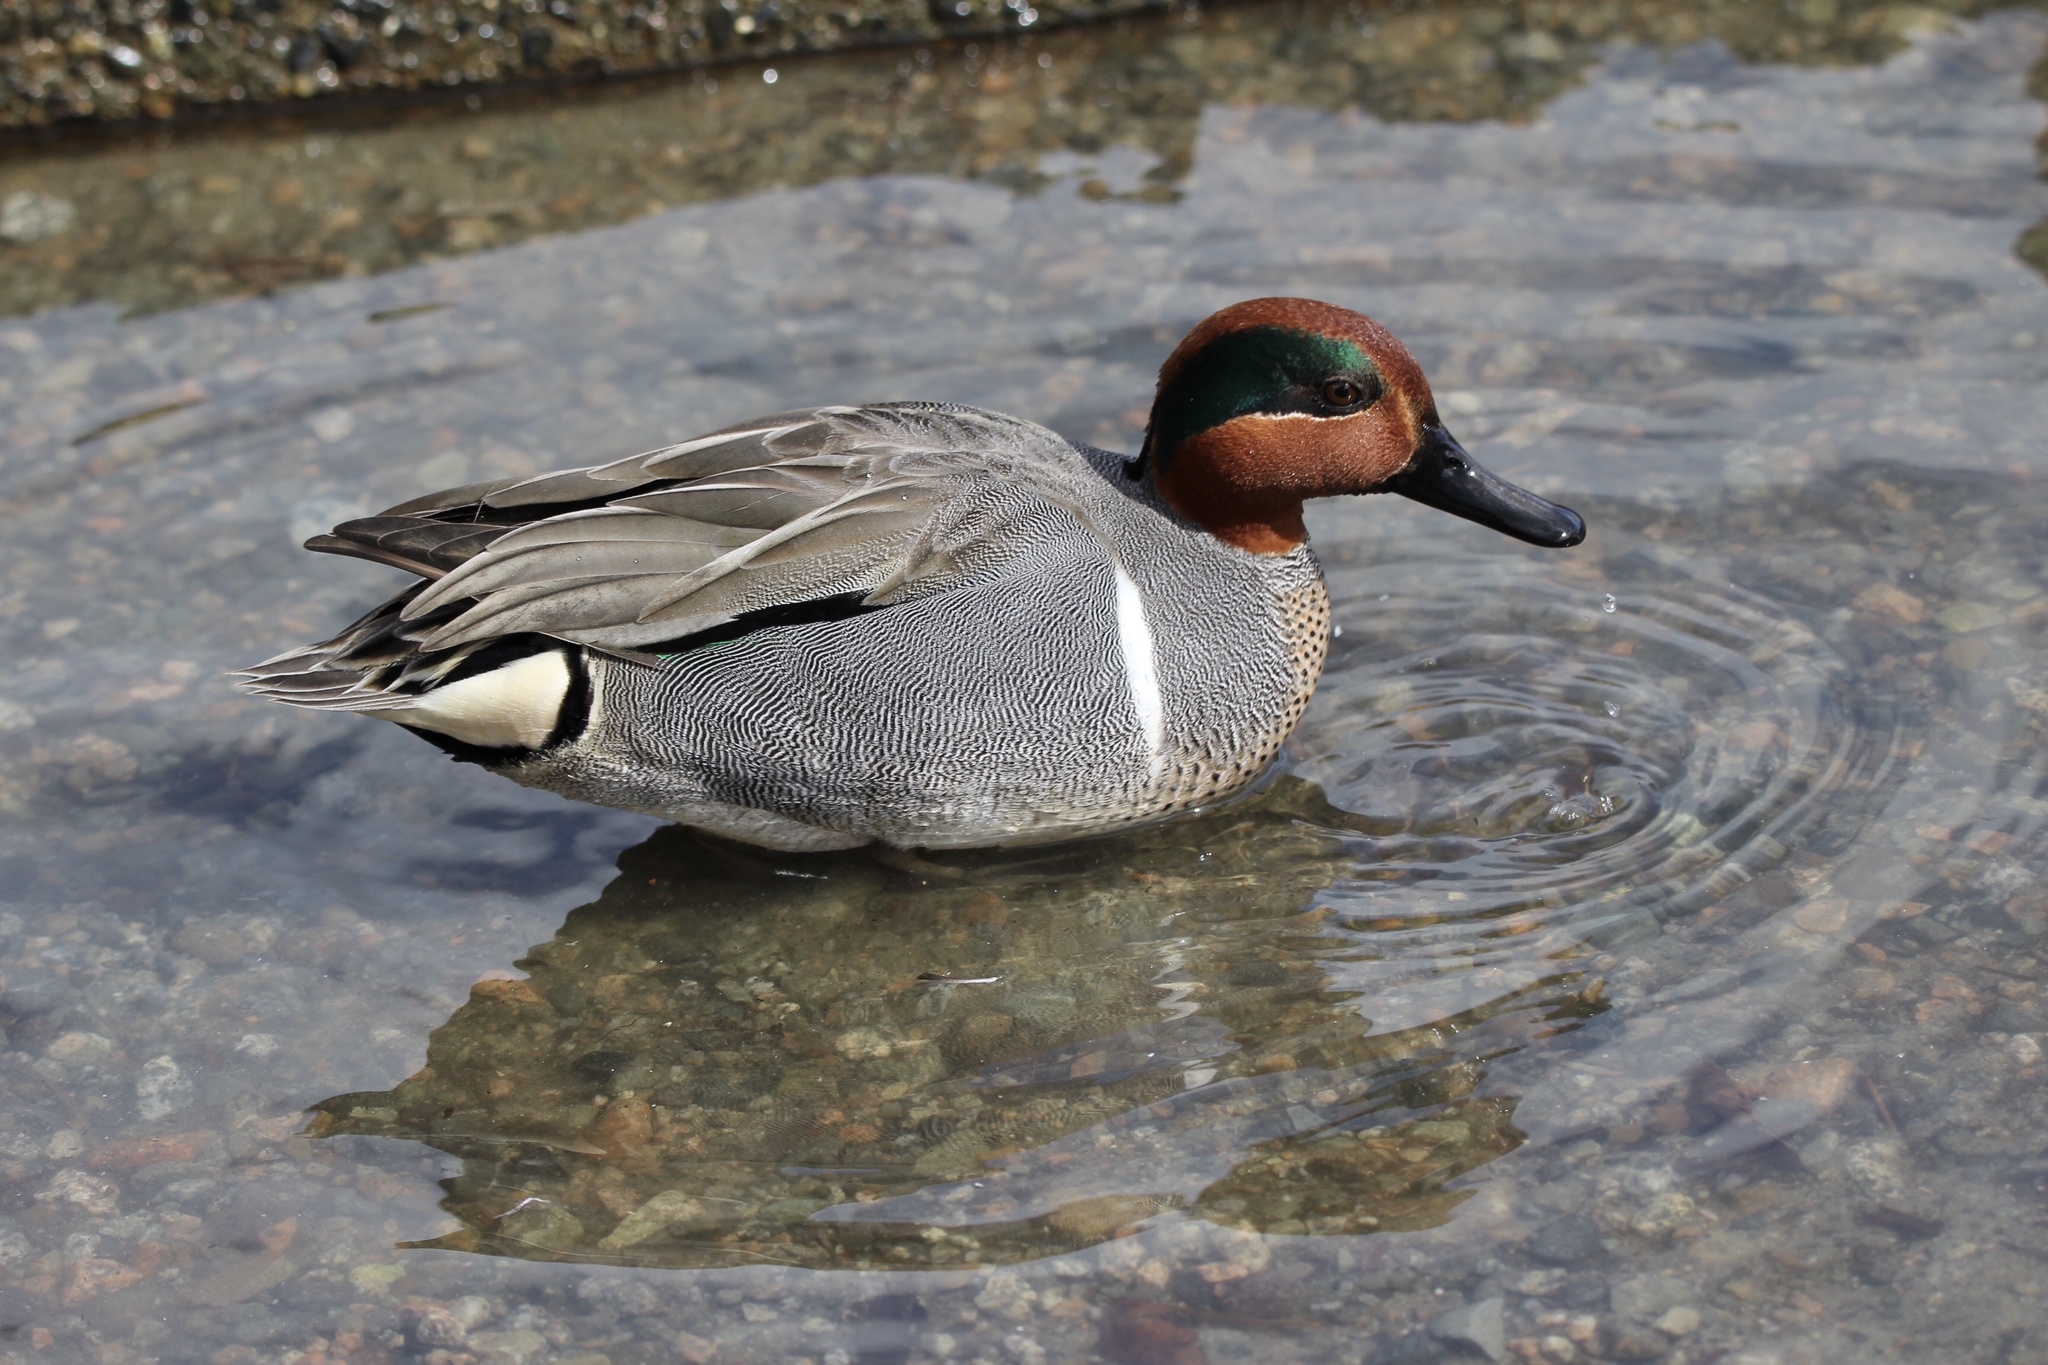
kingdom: Animalia
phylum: Chordata
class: Aves
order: Anseriformes
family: Anatidae
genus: Anas
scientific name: Anas carolinensis
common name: Green-winged teal
